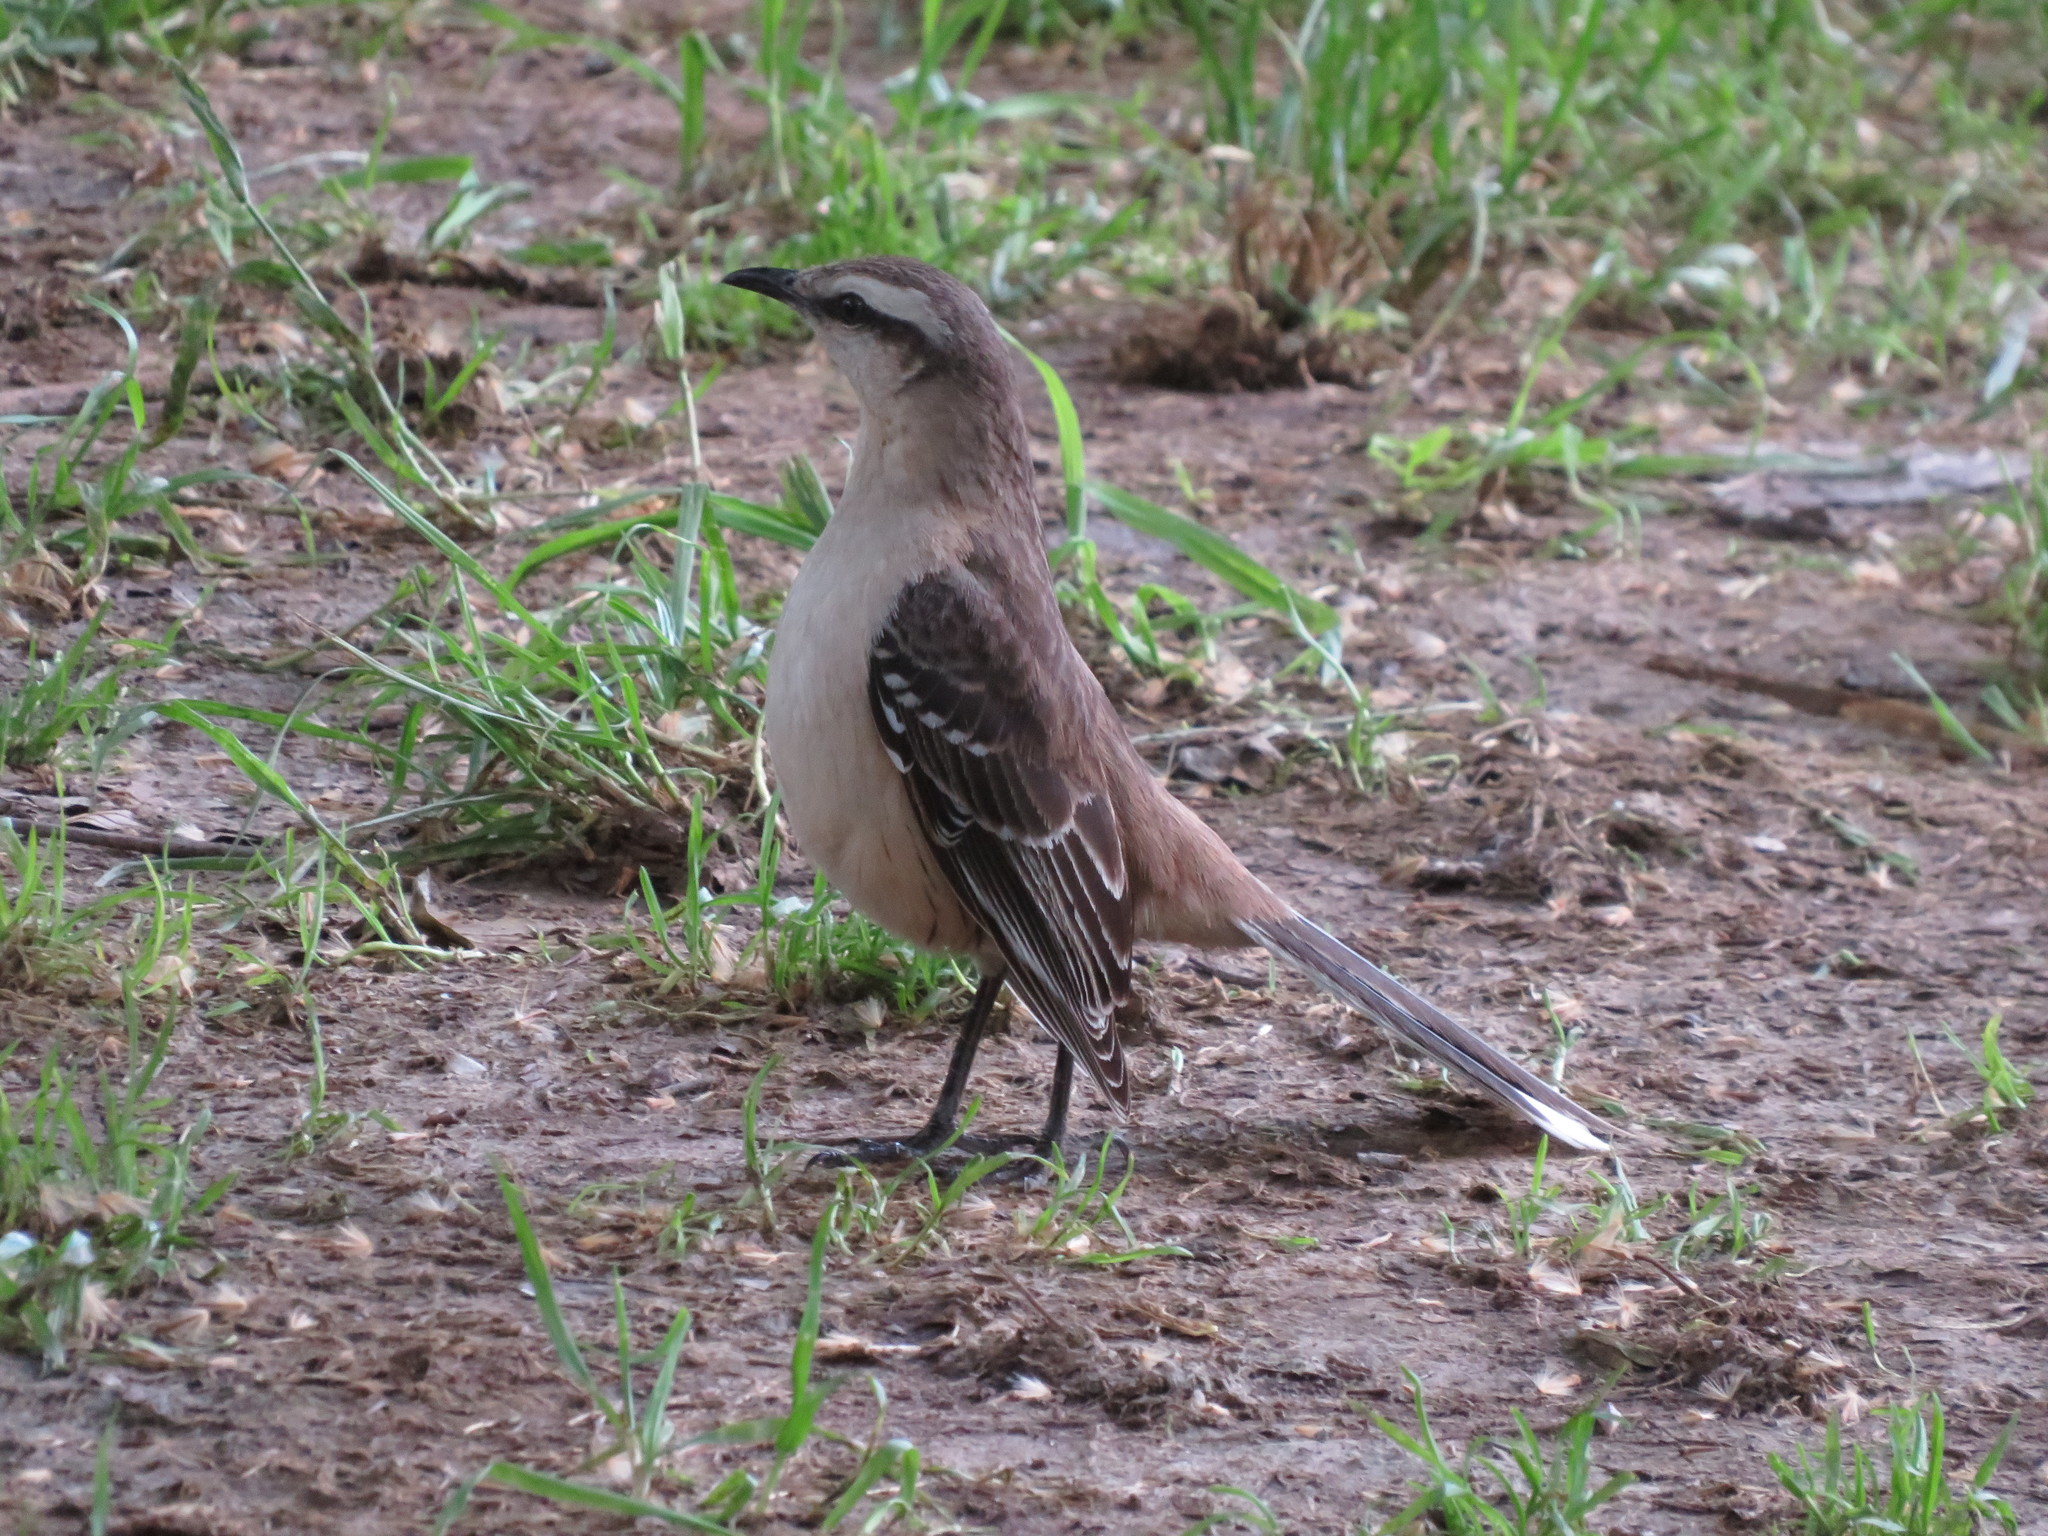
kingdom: Animalia
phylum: Chordata
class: Aves
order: Passeriformes
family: Mimidae
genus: Mimus
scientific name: Mimus saturninus
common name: Chalk-browed mockingbird
